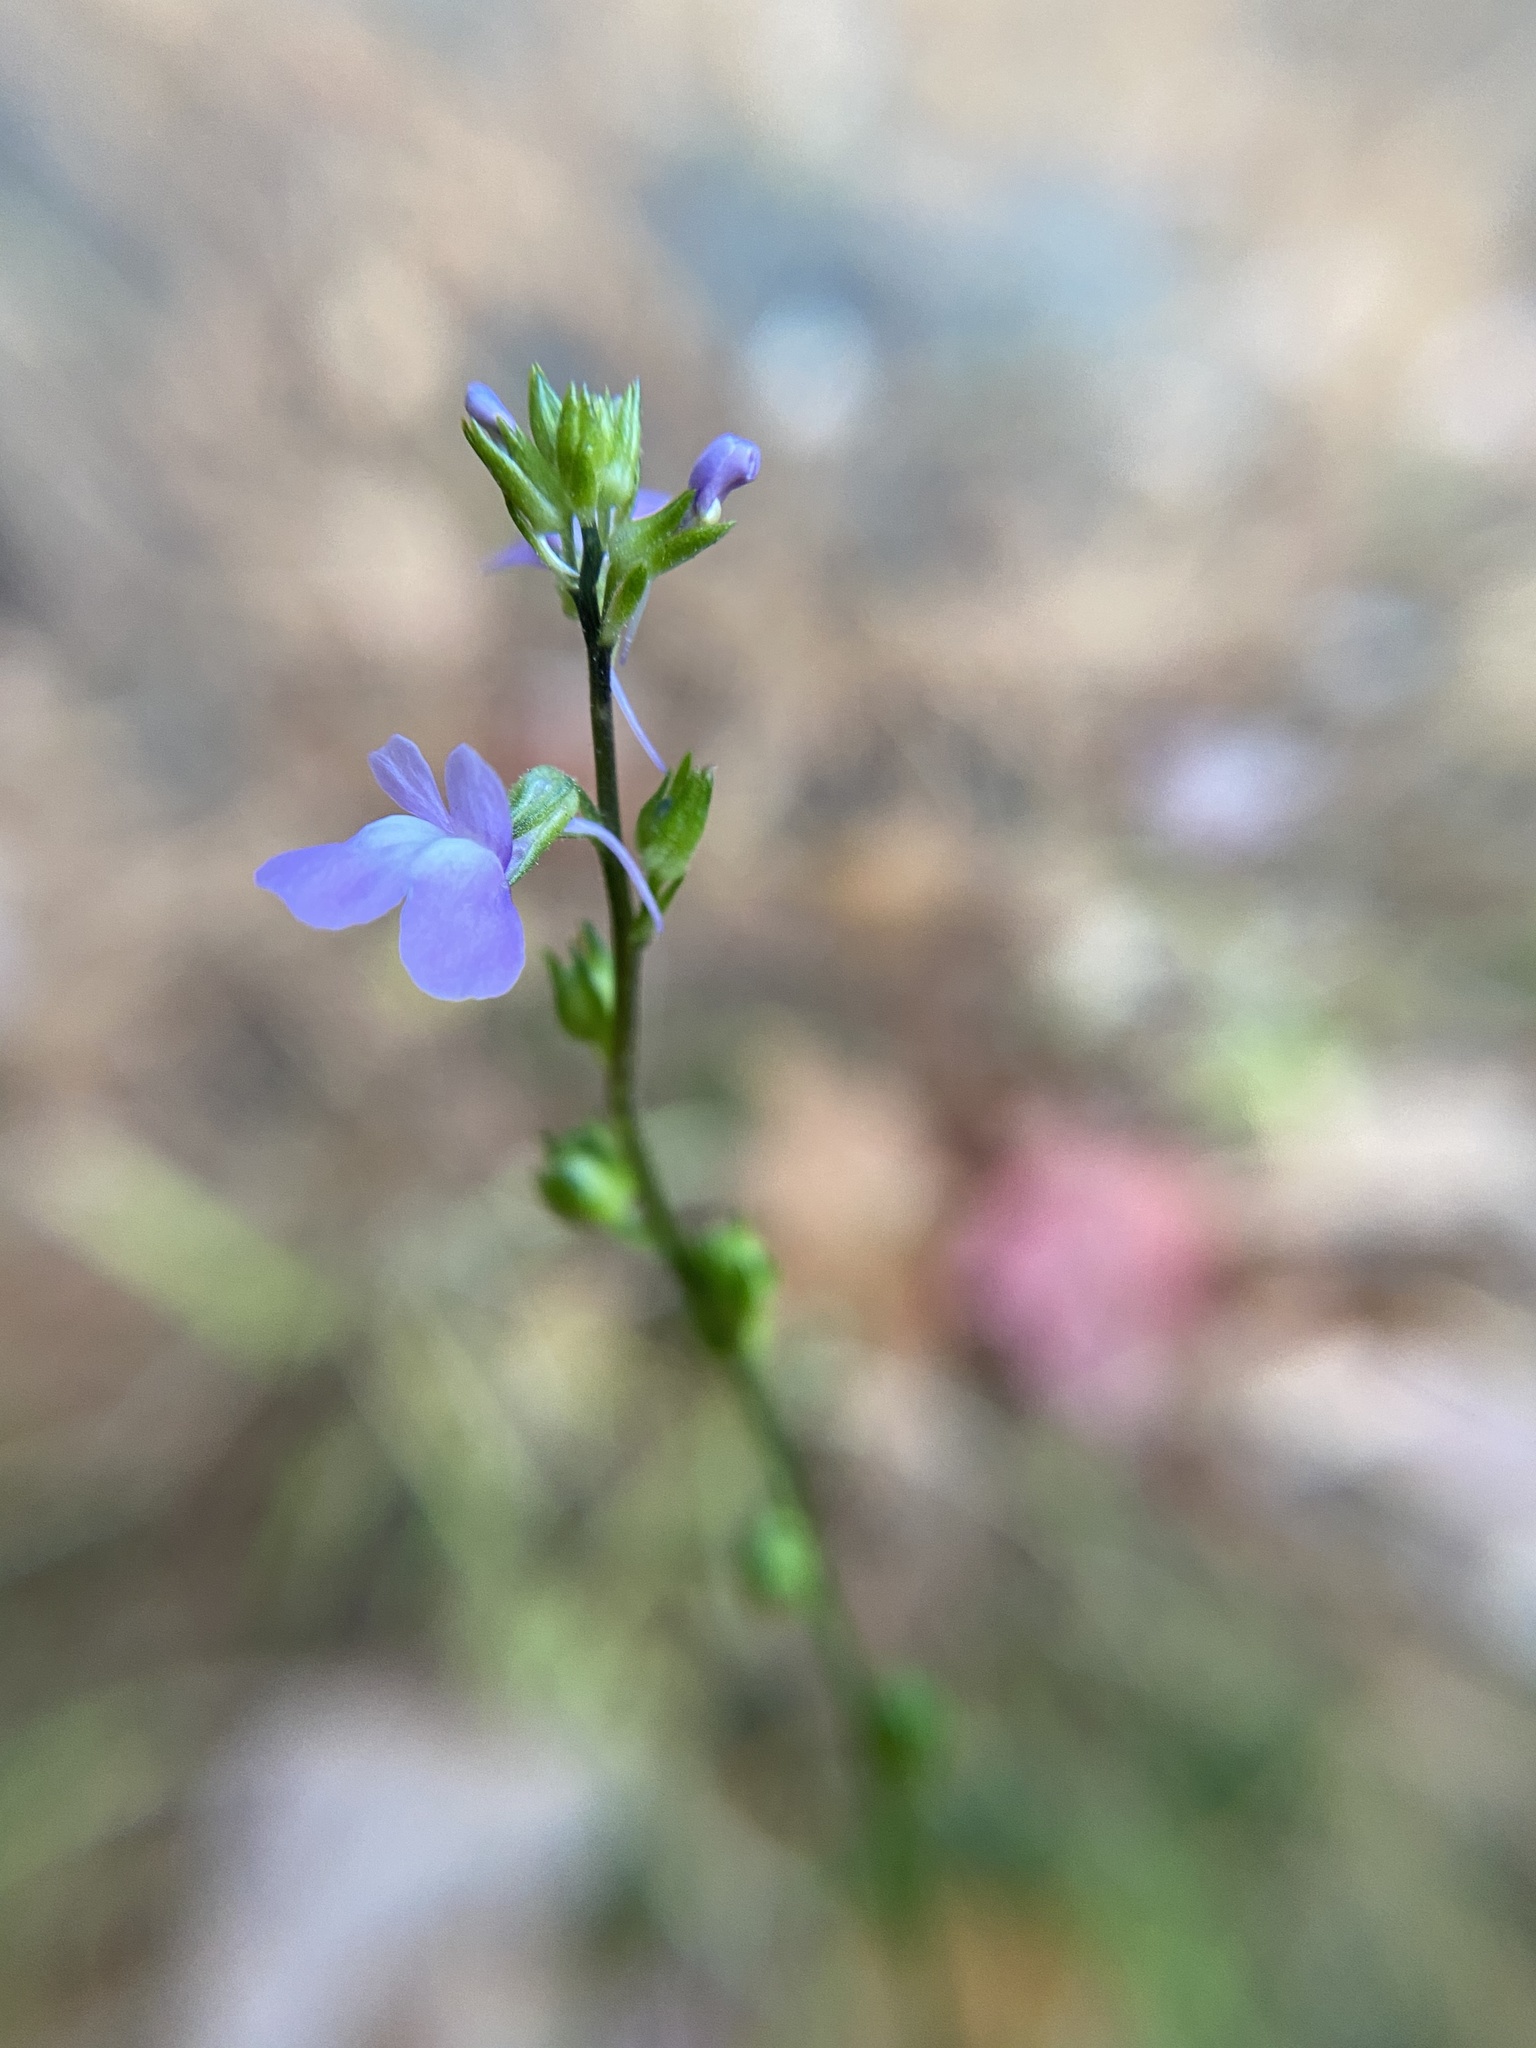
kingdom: Plantae
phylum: Tracheophyta
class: Magnoliopsida
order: Lamiales
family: Plantaginaceae
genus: Nuttallanthus
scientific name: Nuttallanthus canadensis
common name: Blue toadflax
